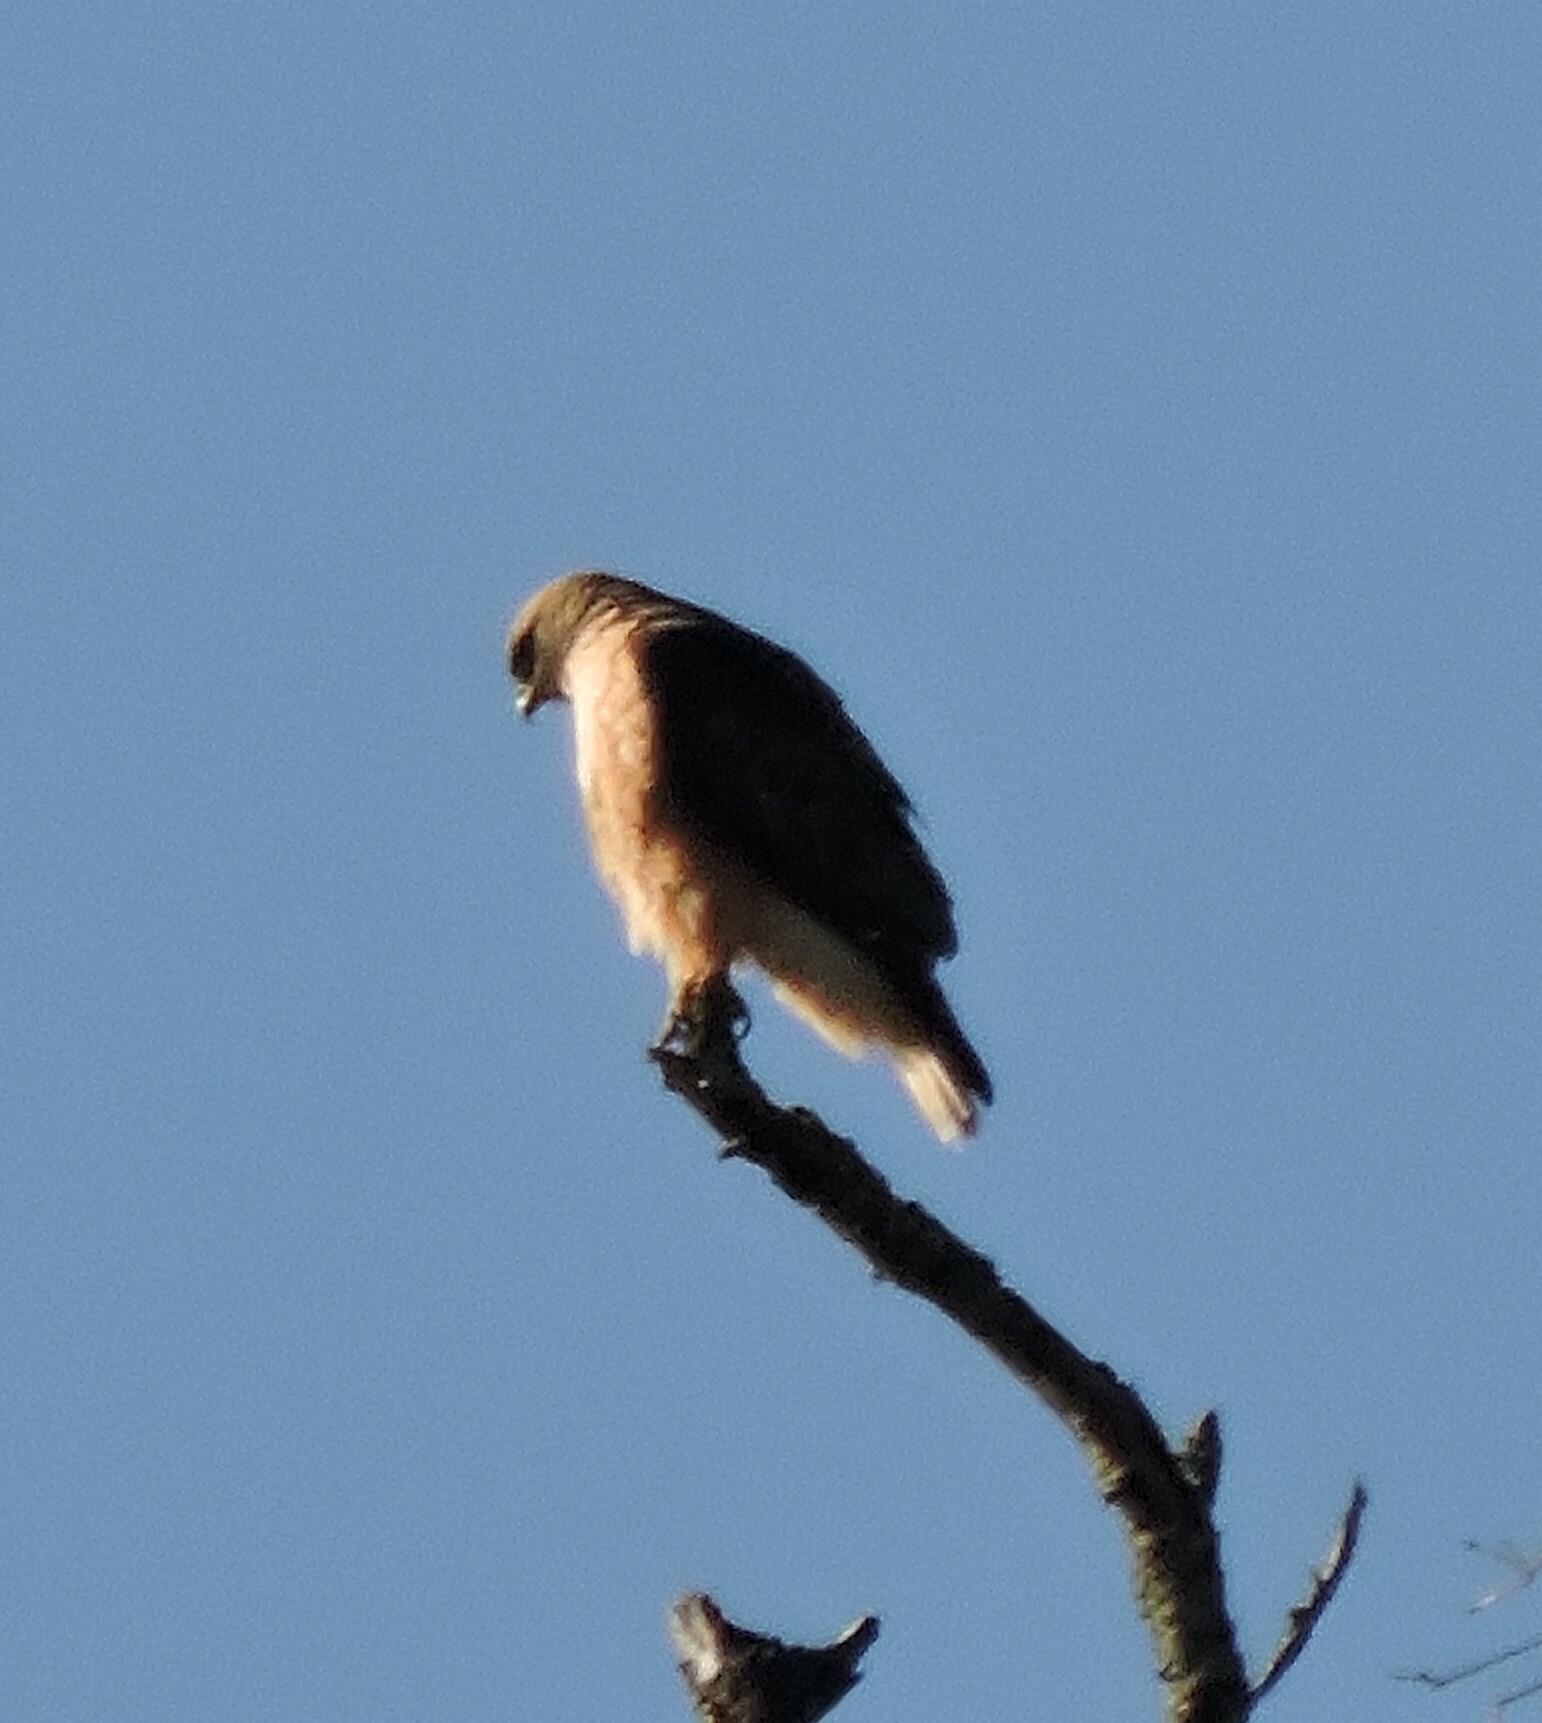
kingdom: Animalia
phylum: Chordata
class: Aves
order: Accipitriformes
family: Accipitridae
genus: Buteo
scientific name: Buteo jamaicensis
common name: Red-tailed hawk
